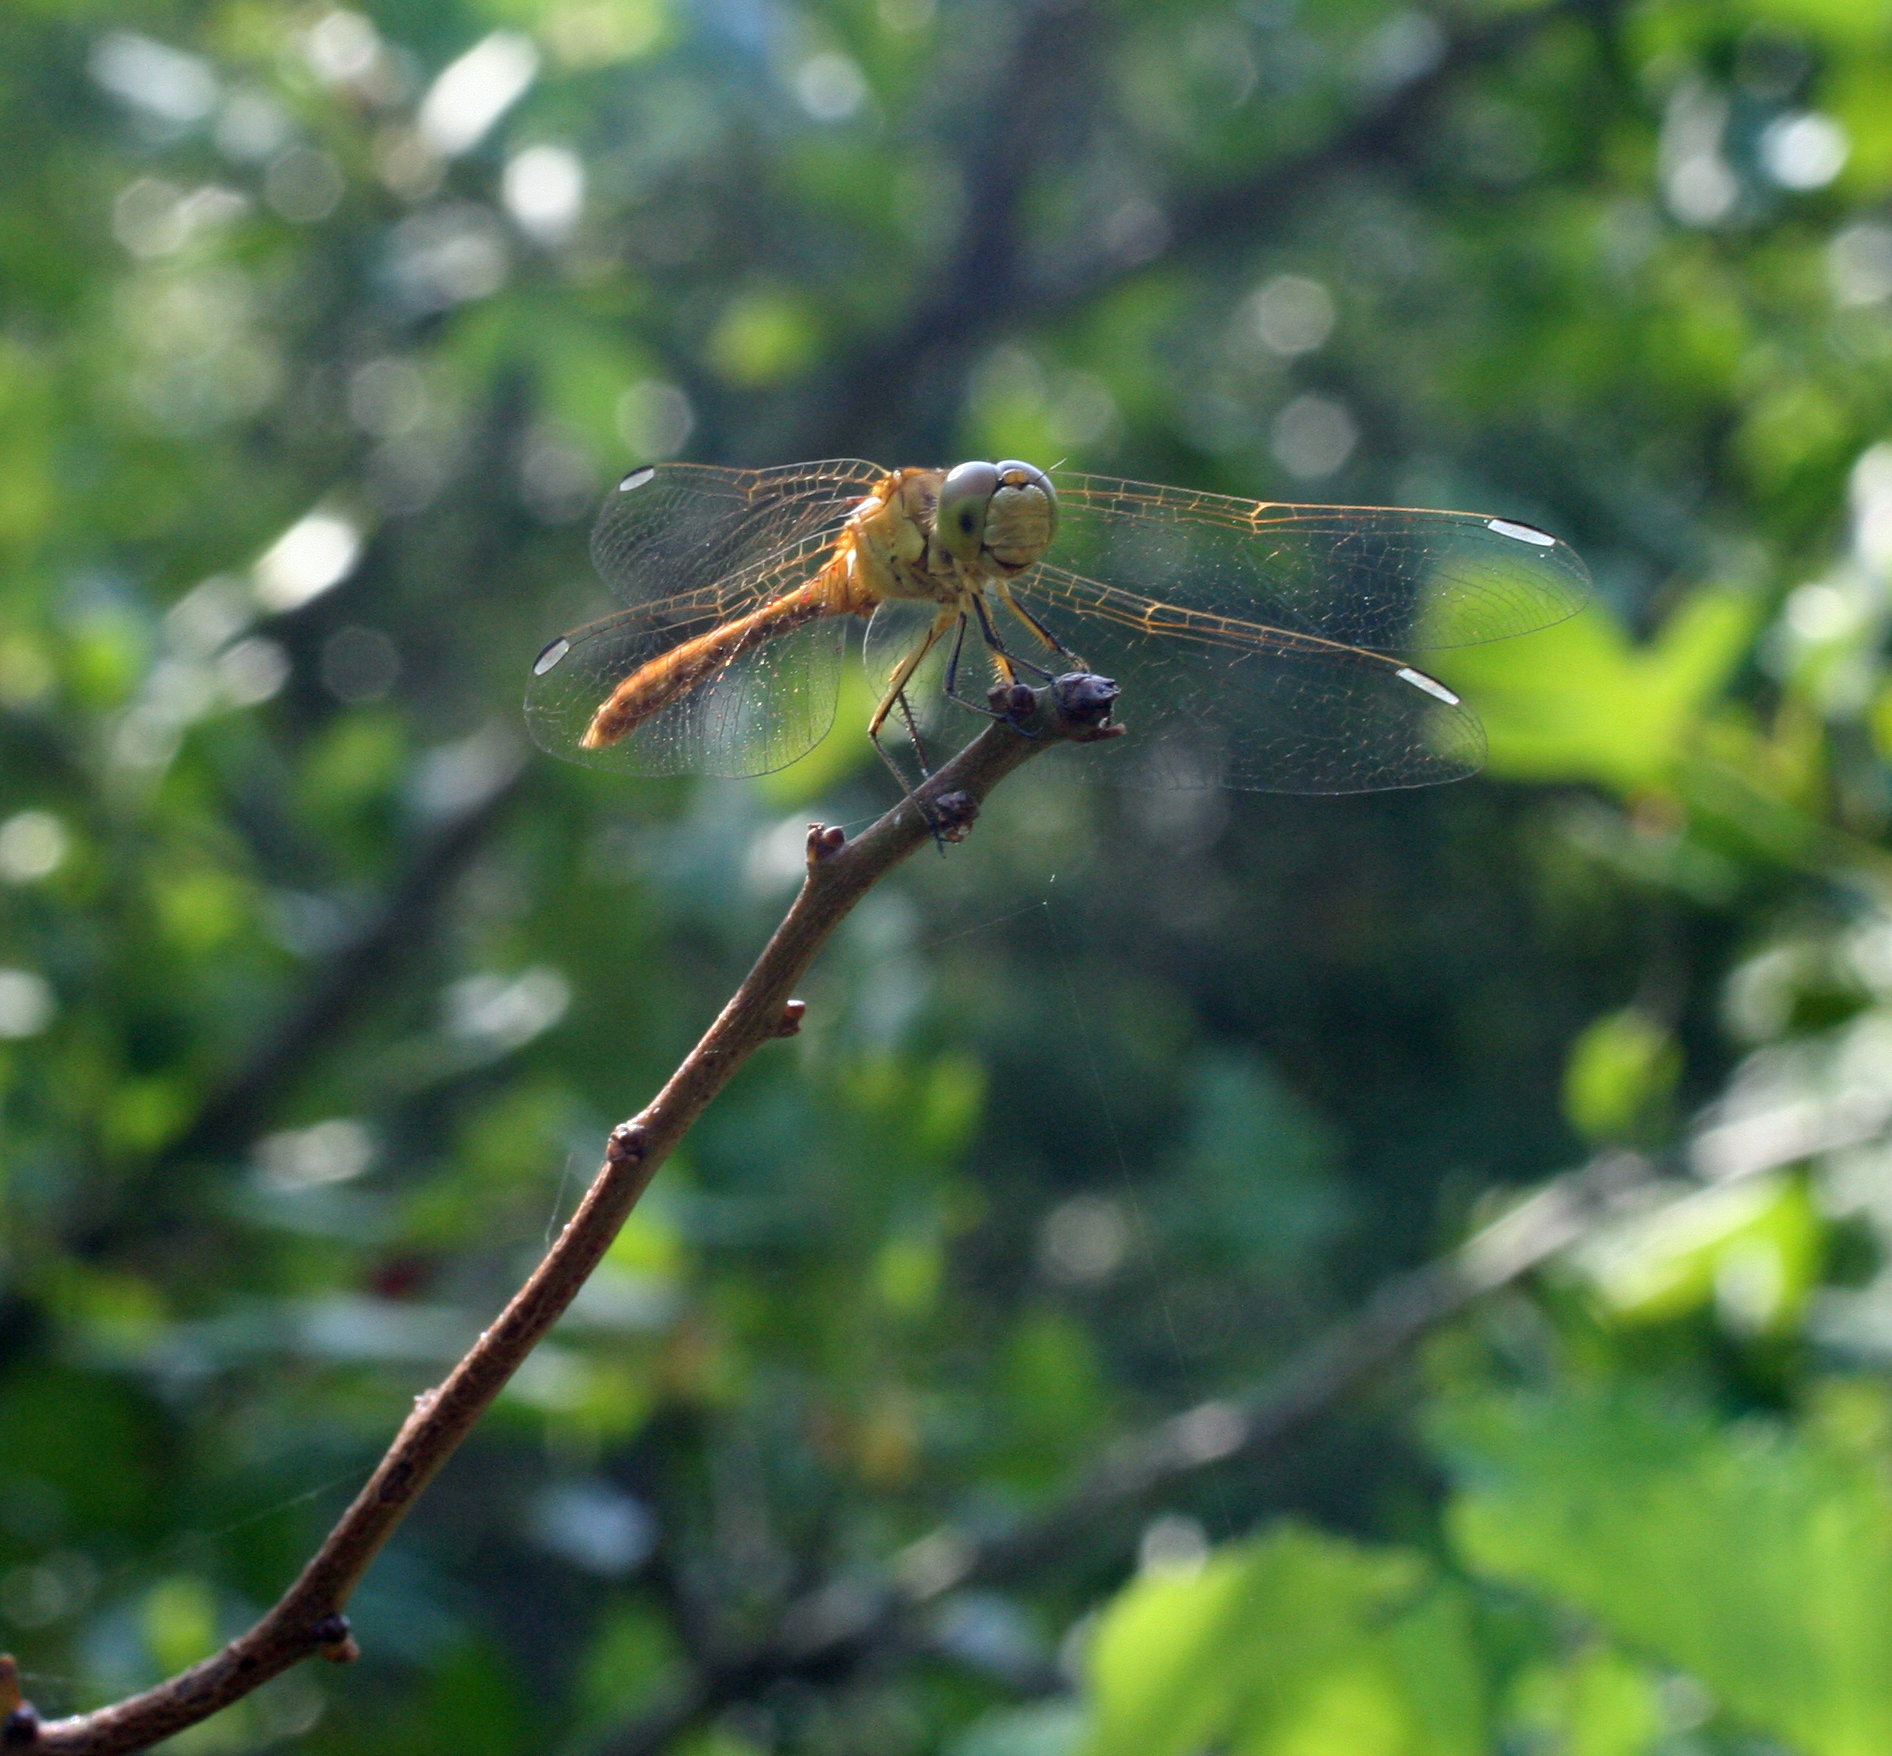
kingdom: Animalia
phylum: Arthropoda
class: Insecta
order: Odonata
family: Libellulidae
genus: Sympetrum
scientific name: Sympetrum meridionale
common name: Southern darter
